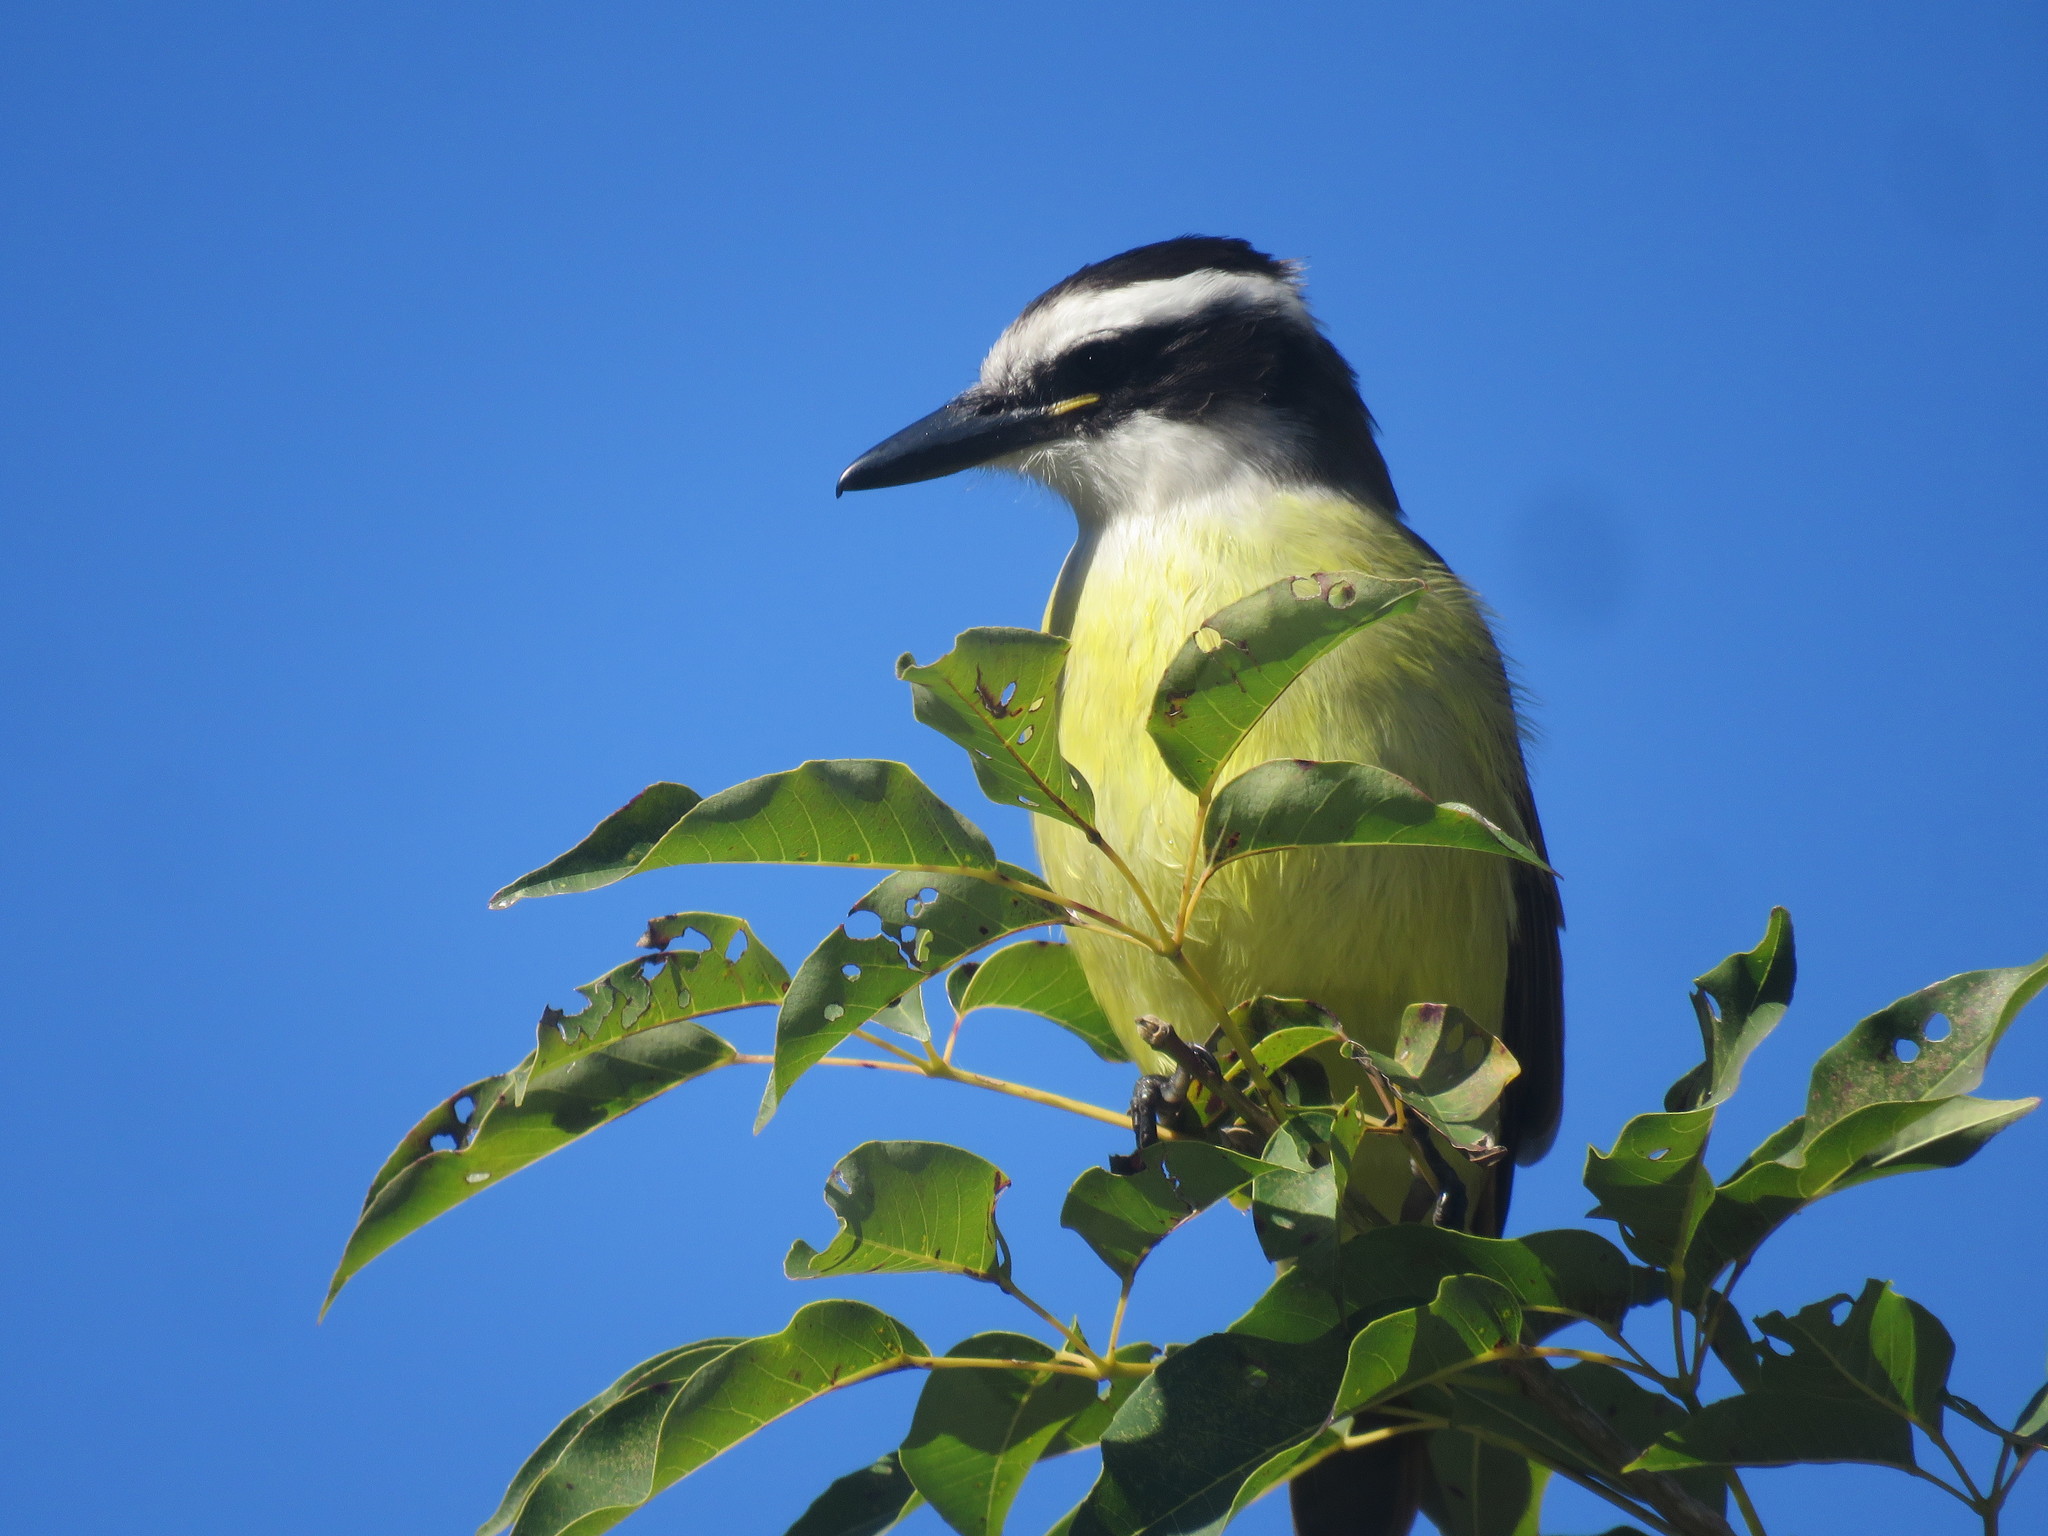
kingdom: Animalia
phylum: Chordata
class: Aves
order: Passeriformes
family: Tyrannidae
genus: Pitangus
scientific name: Pitangus sulphuratus
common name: Great kiskadee
